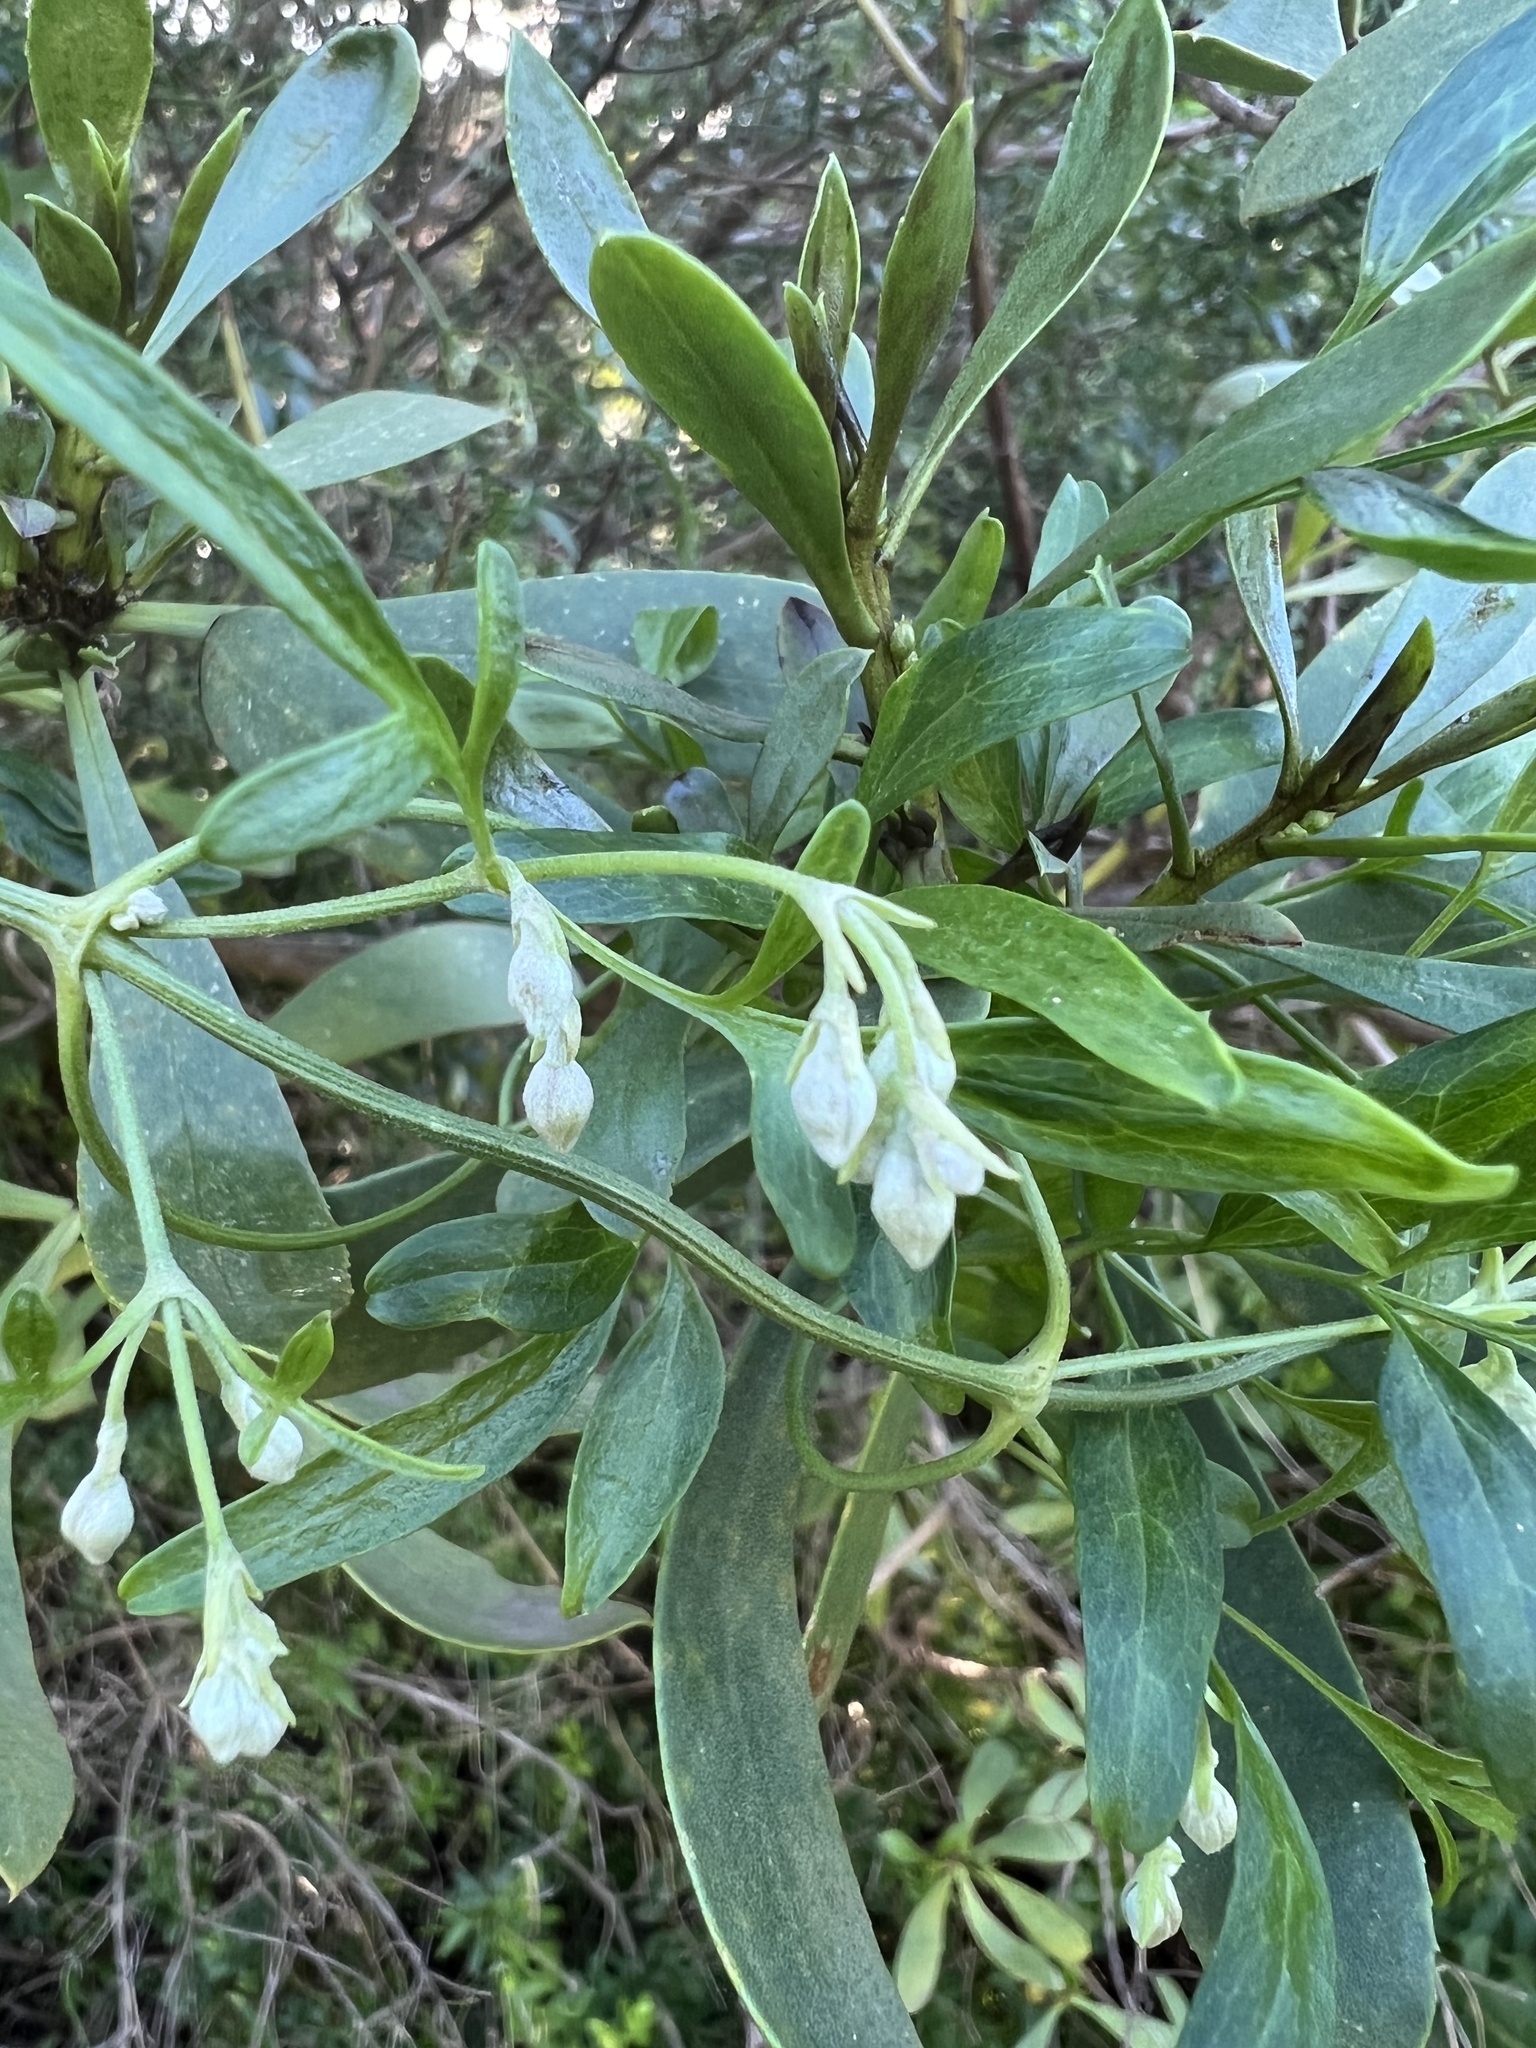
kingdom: Plantae
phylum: Tracheophyta
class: Magnoliopsida
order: Ranunculales
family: Ranunculaceae
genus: Clematis
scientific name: Clematis microphylla
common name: Headachevine
